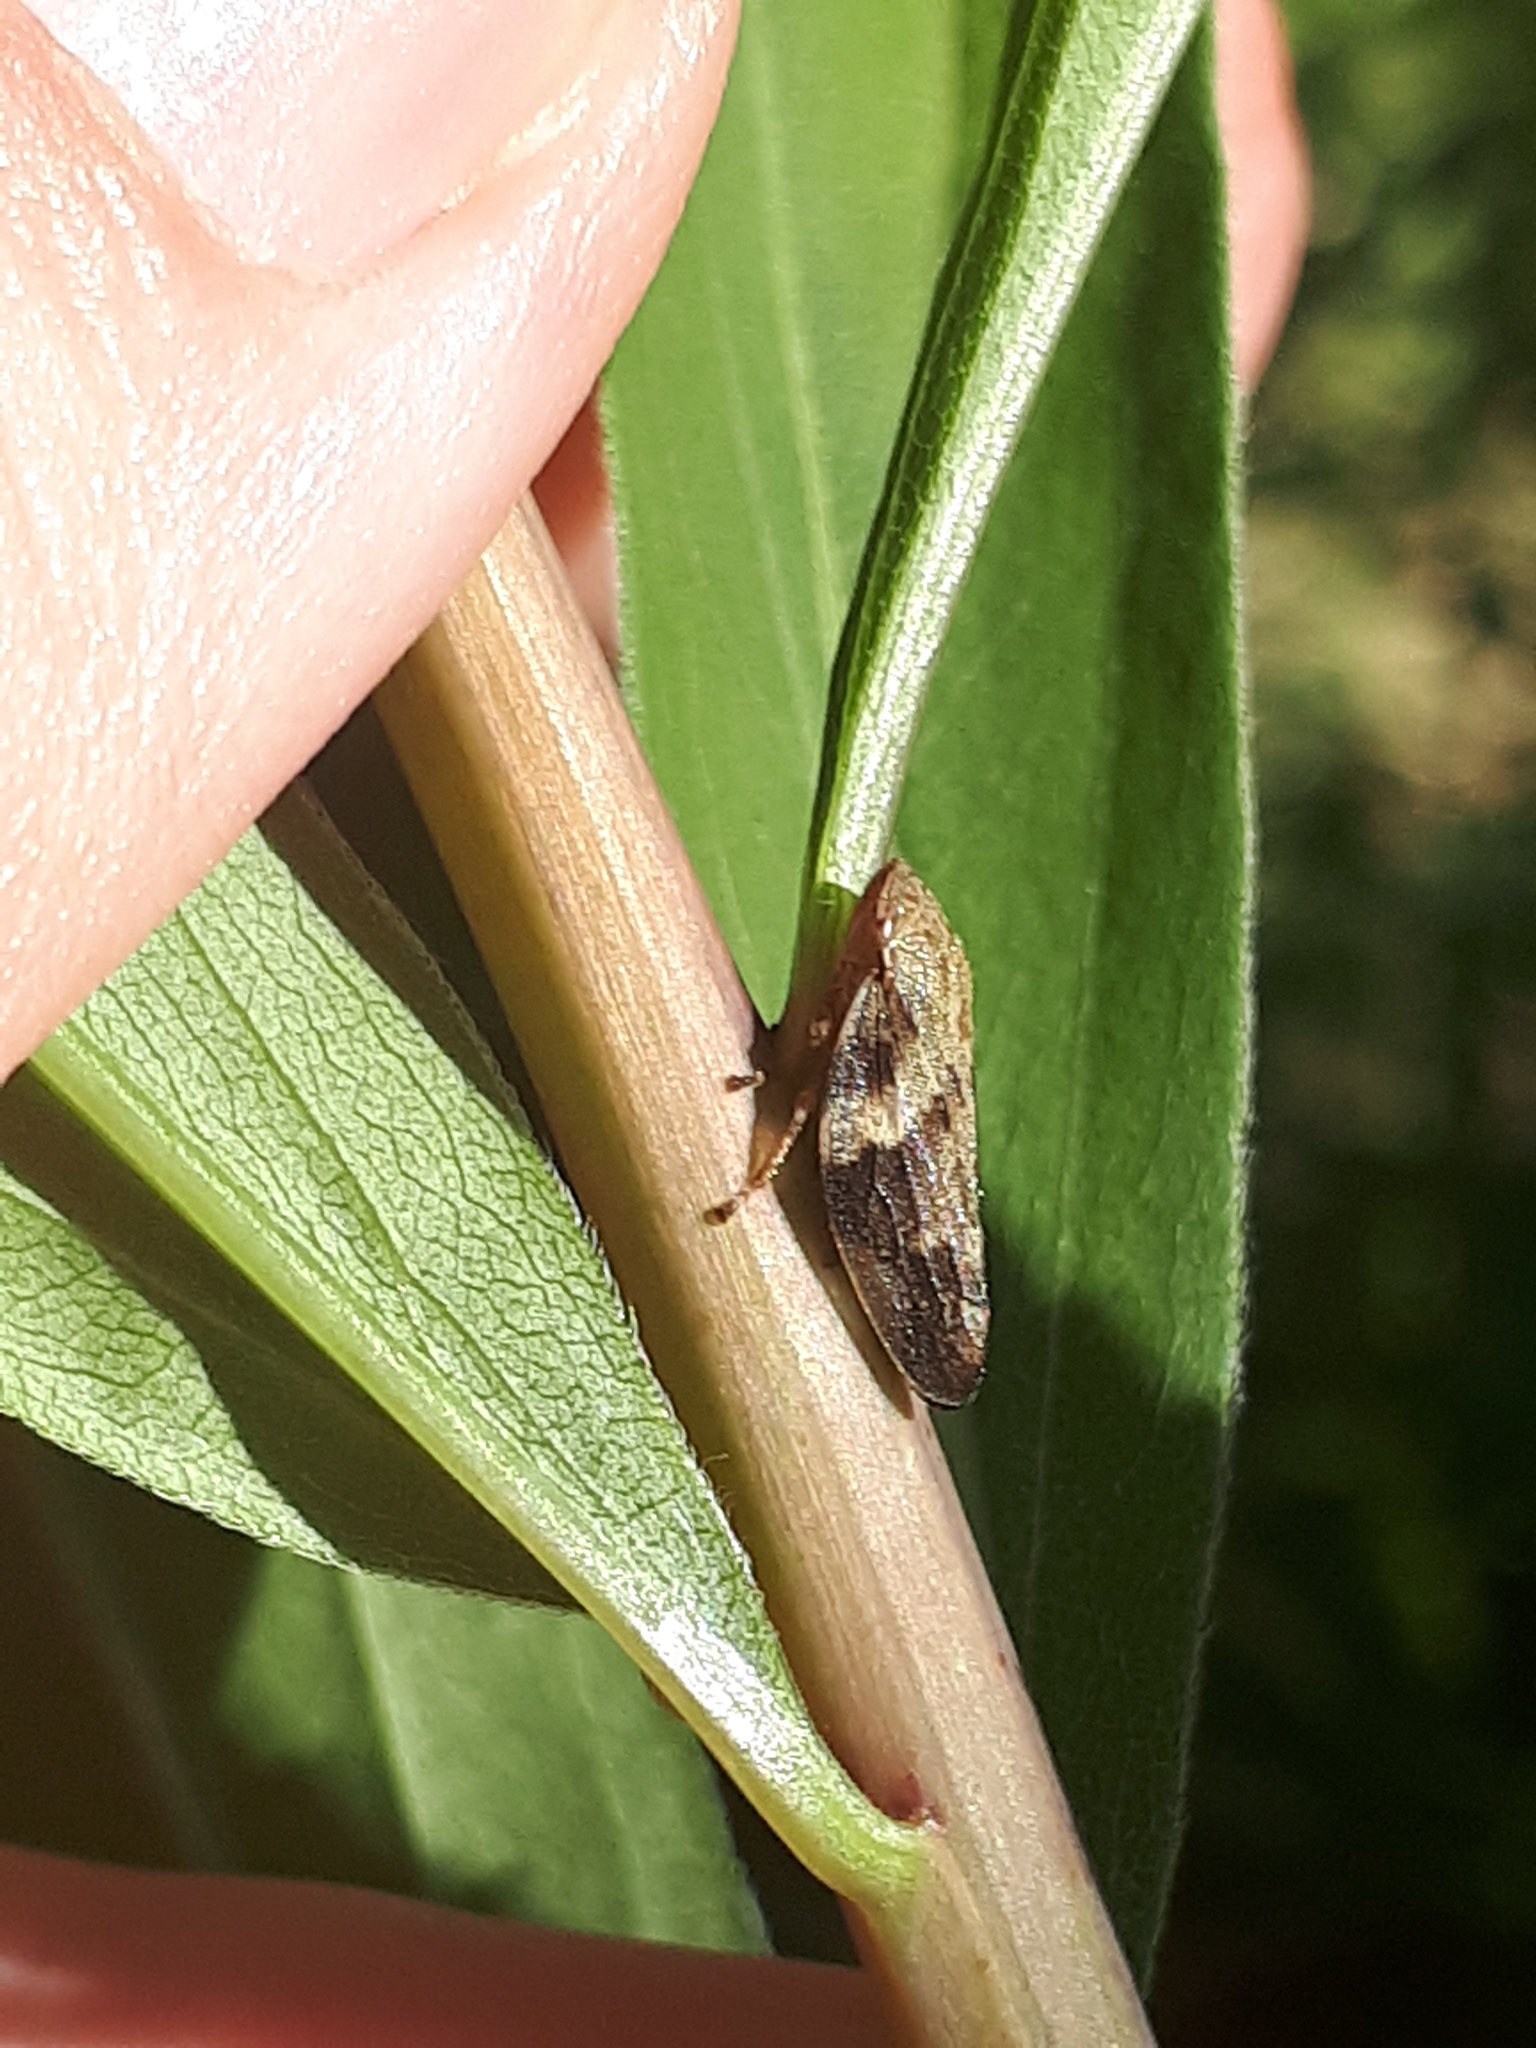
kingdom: Animalia
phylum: Arthropoda
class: Insecta
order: Hemiptera
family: Aphrophoridae
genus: Aphrophora
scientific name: Aphrophora alni
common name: European alder spittlebug
